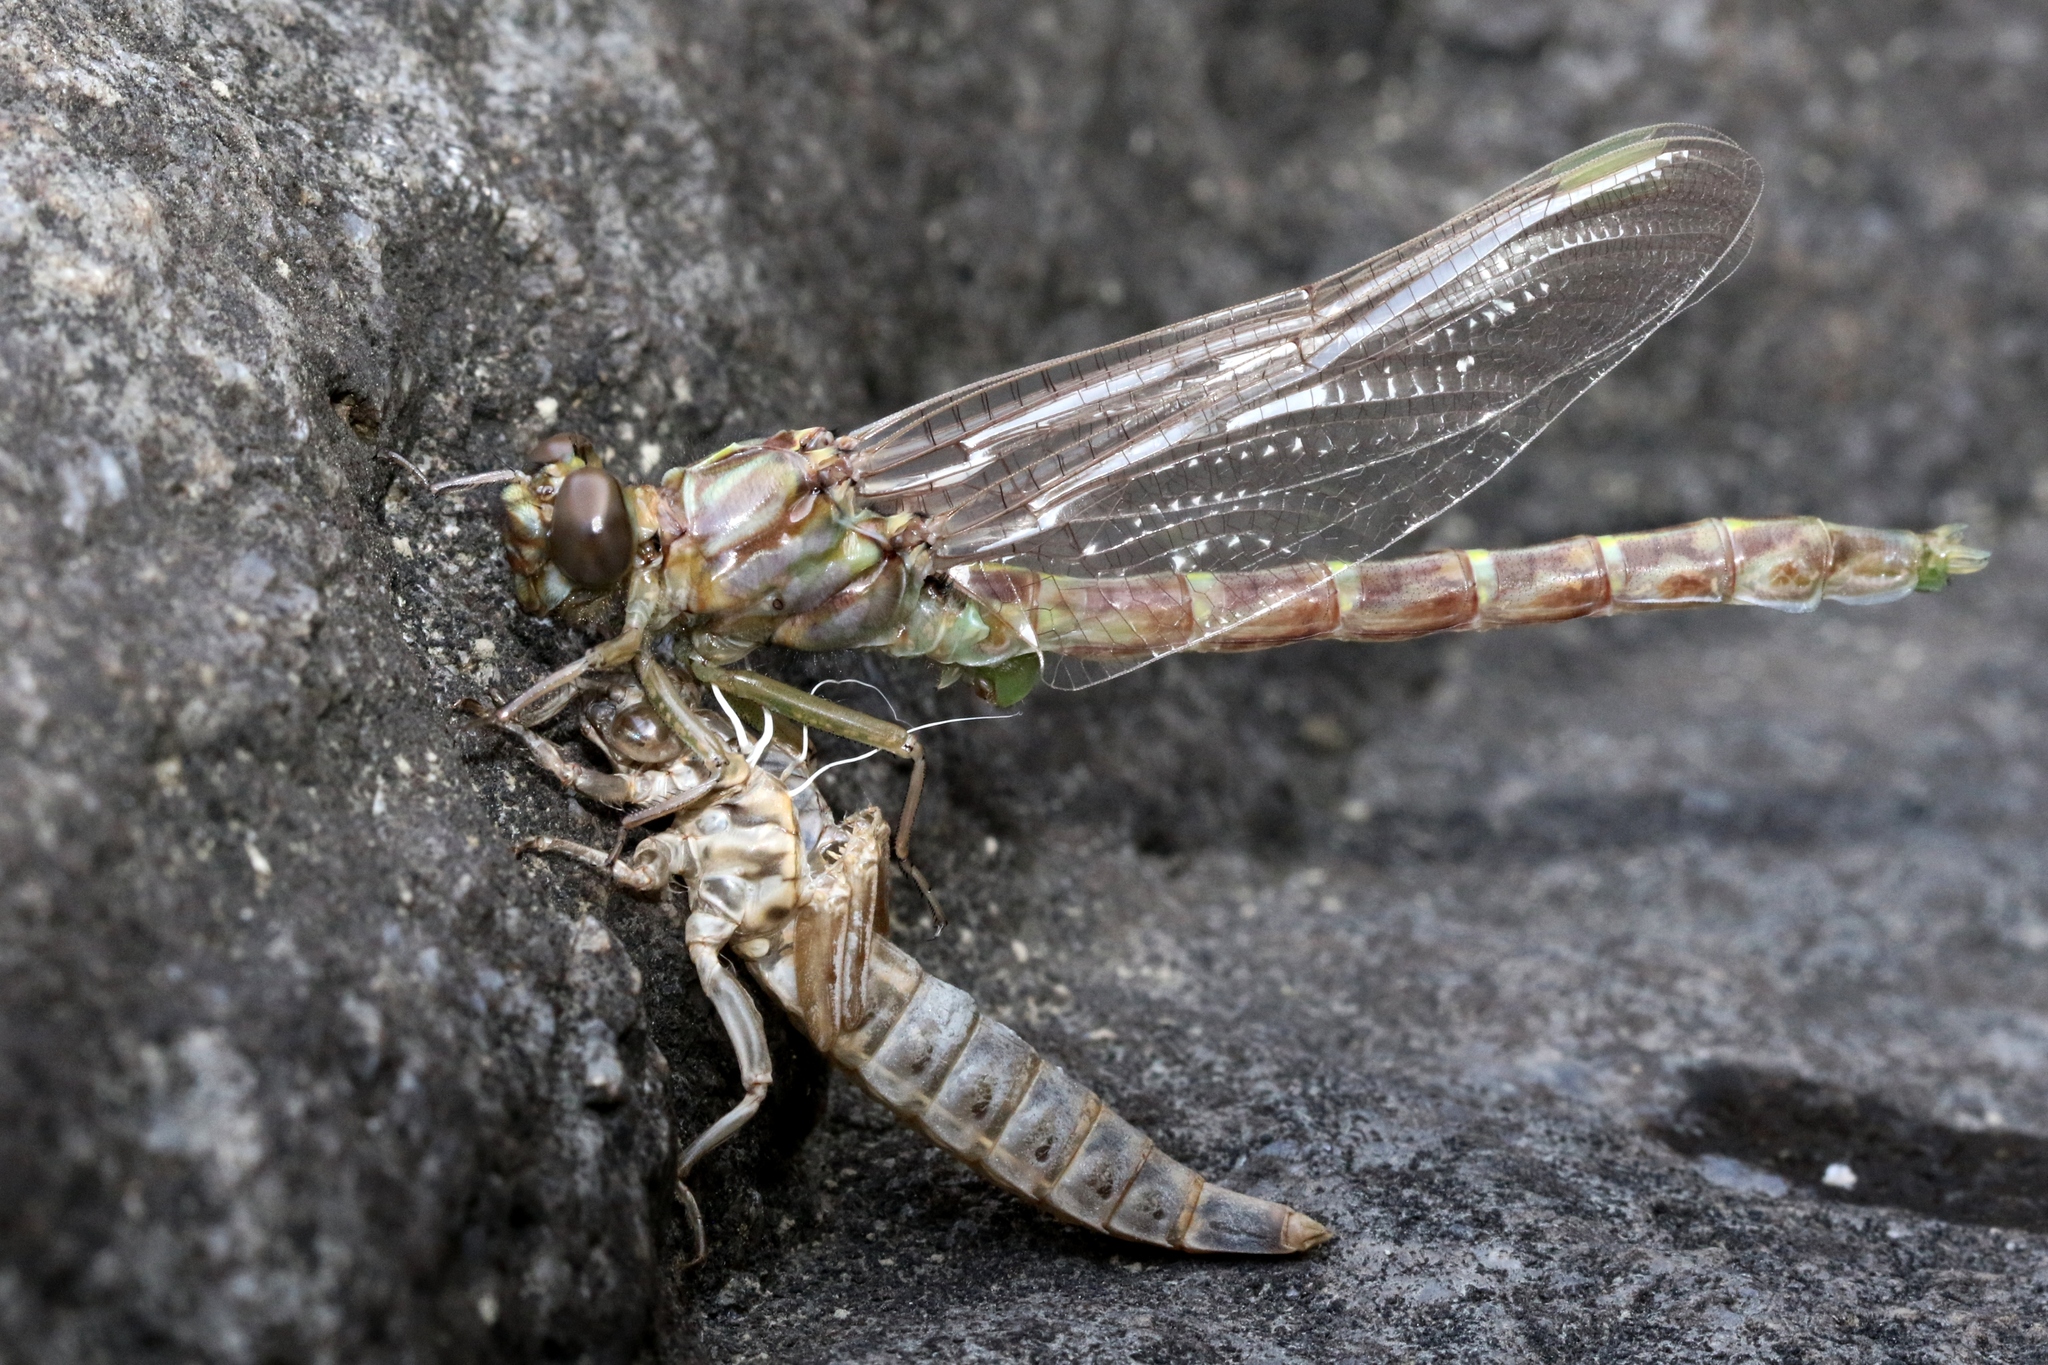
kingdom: Animalia
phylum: Arthropoda
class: Insecta
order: Odonata
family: Gomphidae
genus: Stylurus
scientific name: Stylurus notatus
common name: Elusive clubtail
